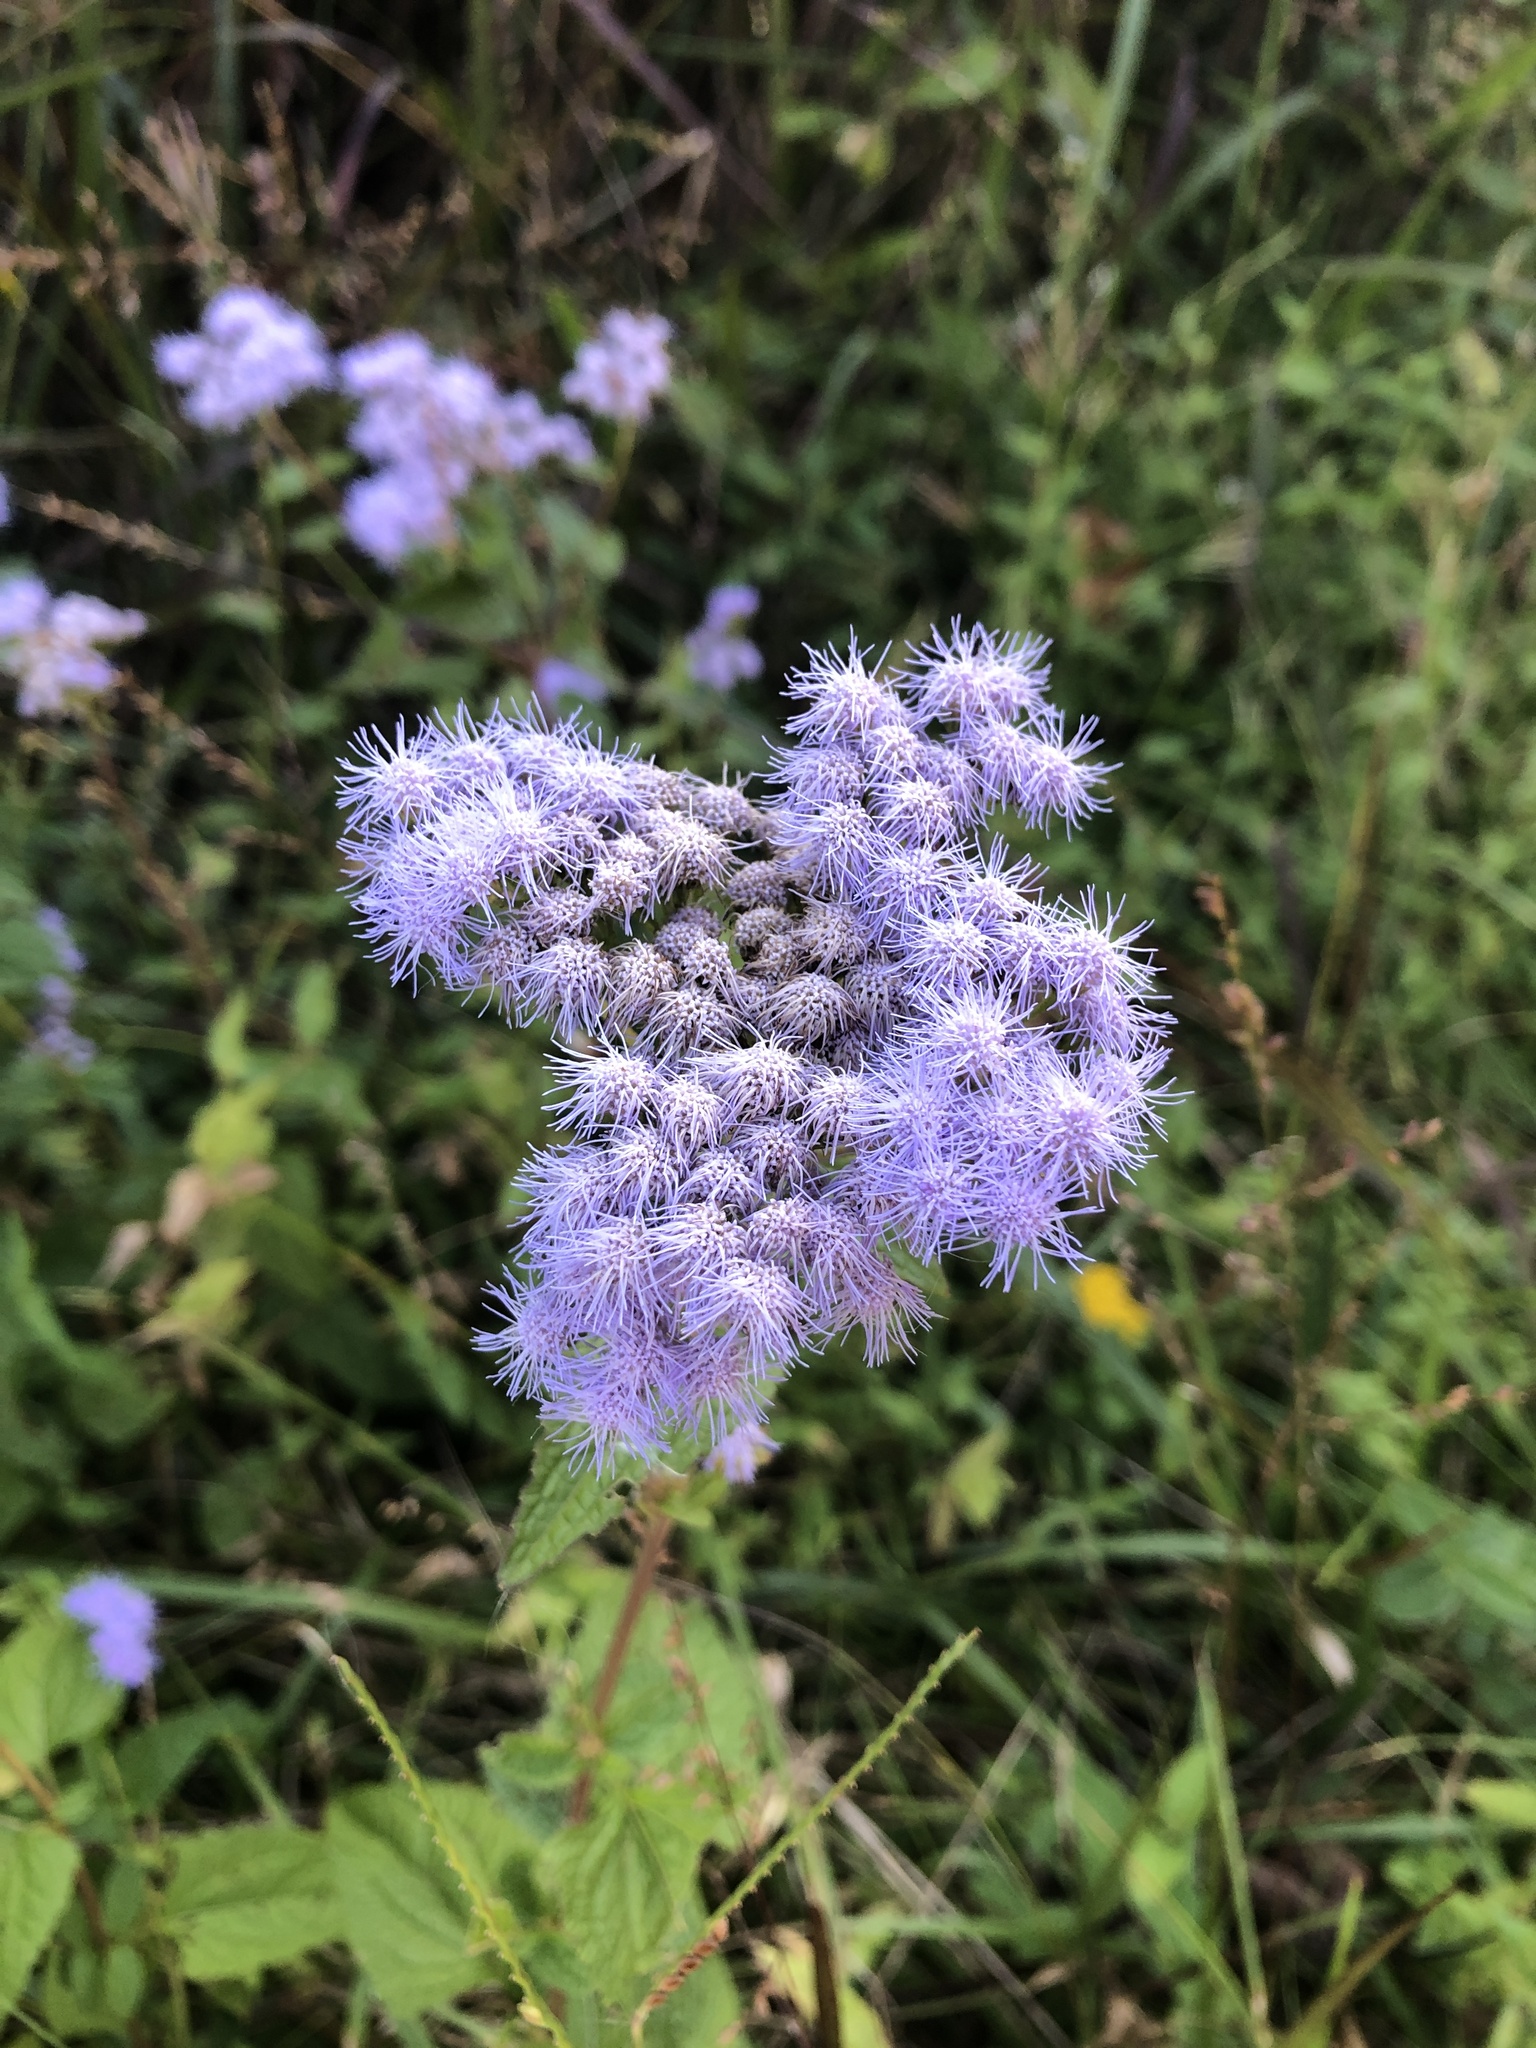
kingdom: Plantae
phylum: Tracheophyta
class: Magnoliopsida
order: Asterales
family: Asteraceae
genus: Conoclinium
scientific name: Conoclinium coelestinum
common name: Blue mistflower
